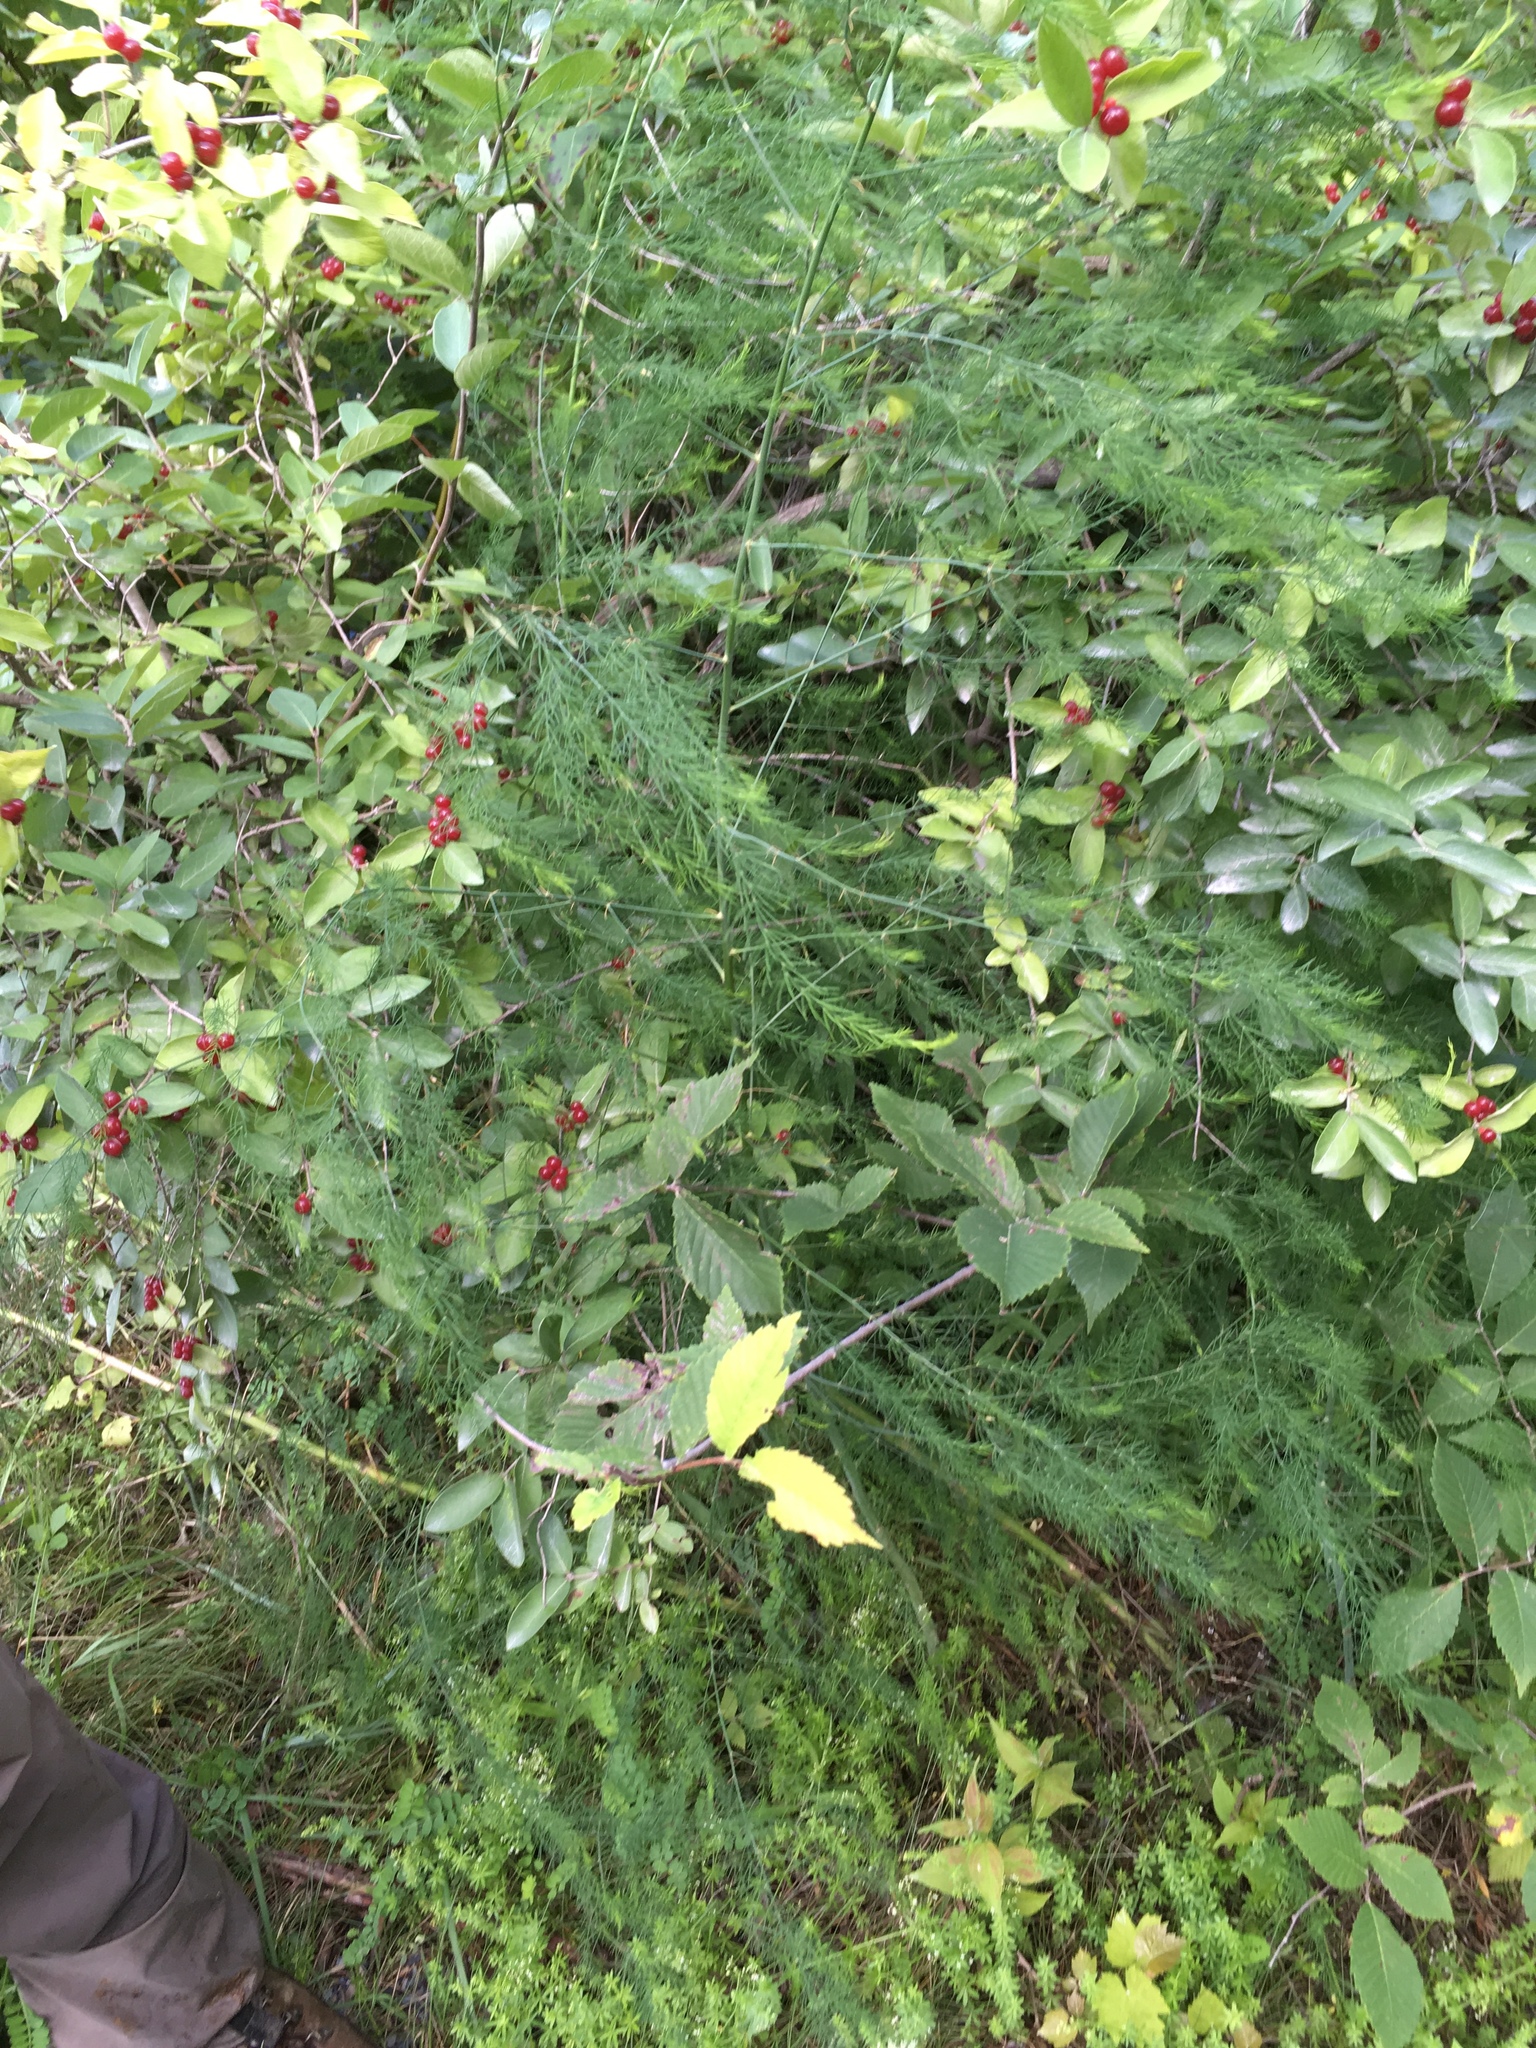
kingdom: Plantae
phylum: Tracheophyta
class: Liliopsida
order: Asparagales
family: Asparagaceae
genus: Asparagus
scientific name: Asparagus officinalis
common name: Garden asparagus
